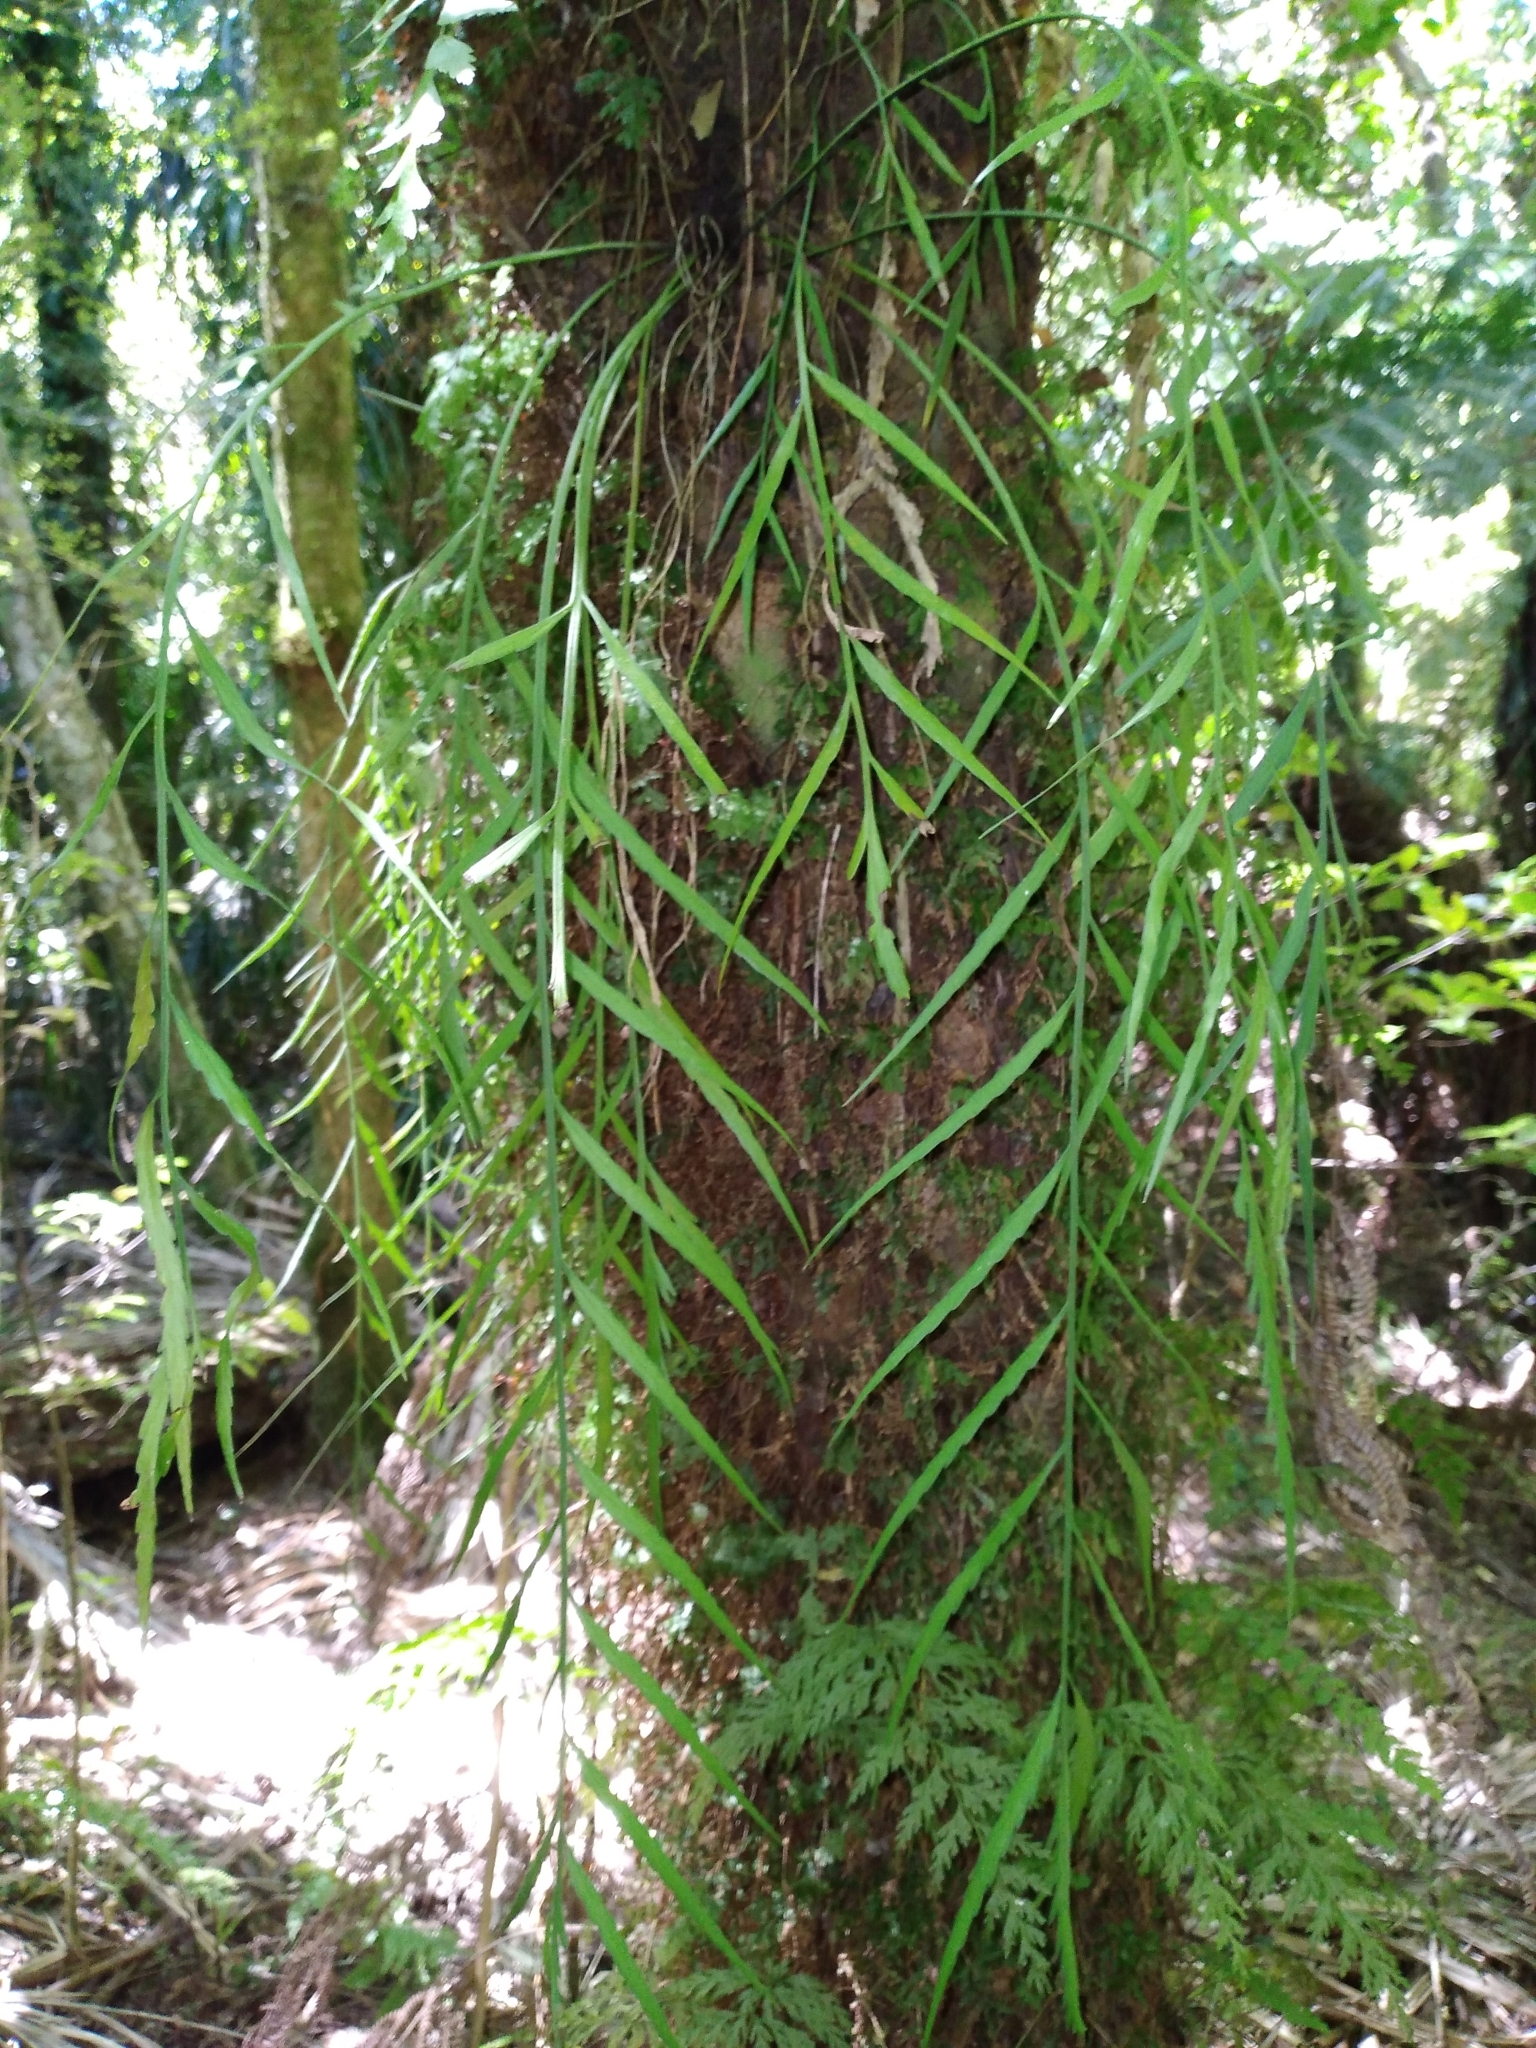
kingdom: Plantae
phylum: Tracheophyta
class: Polypodiopsida
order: Polypodiales
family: Aspleniaceae
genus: Asplenium
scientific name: Asplenium flaccidum
